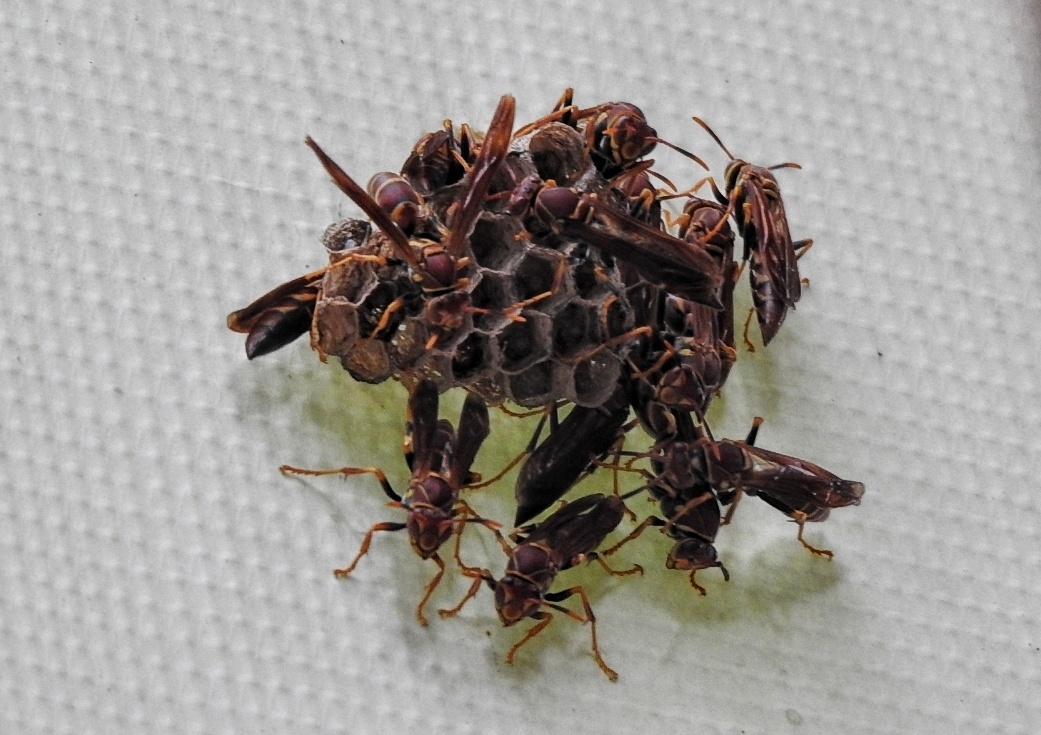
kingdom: Animalia
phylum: Arthropoda
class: Insecta
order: Hymenoptera
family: Eumenidae
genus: Polistes
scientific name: Polistes instabilis
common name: Unstable paper wasp
